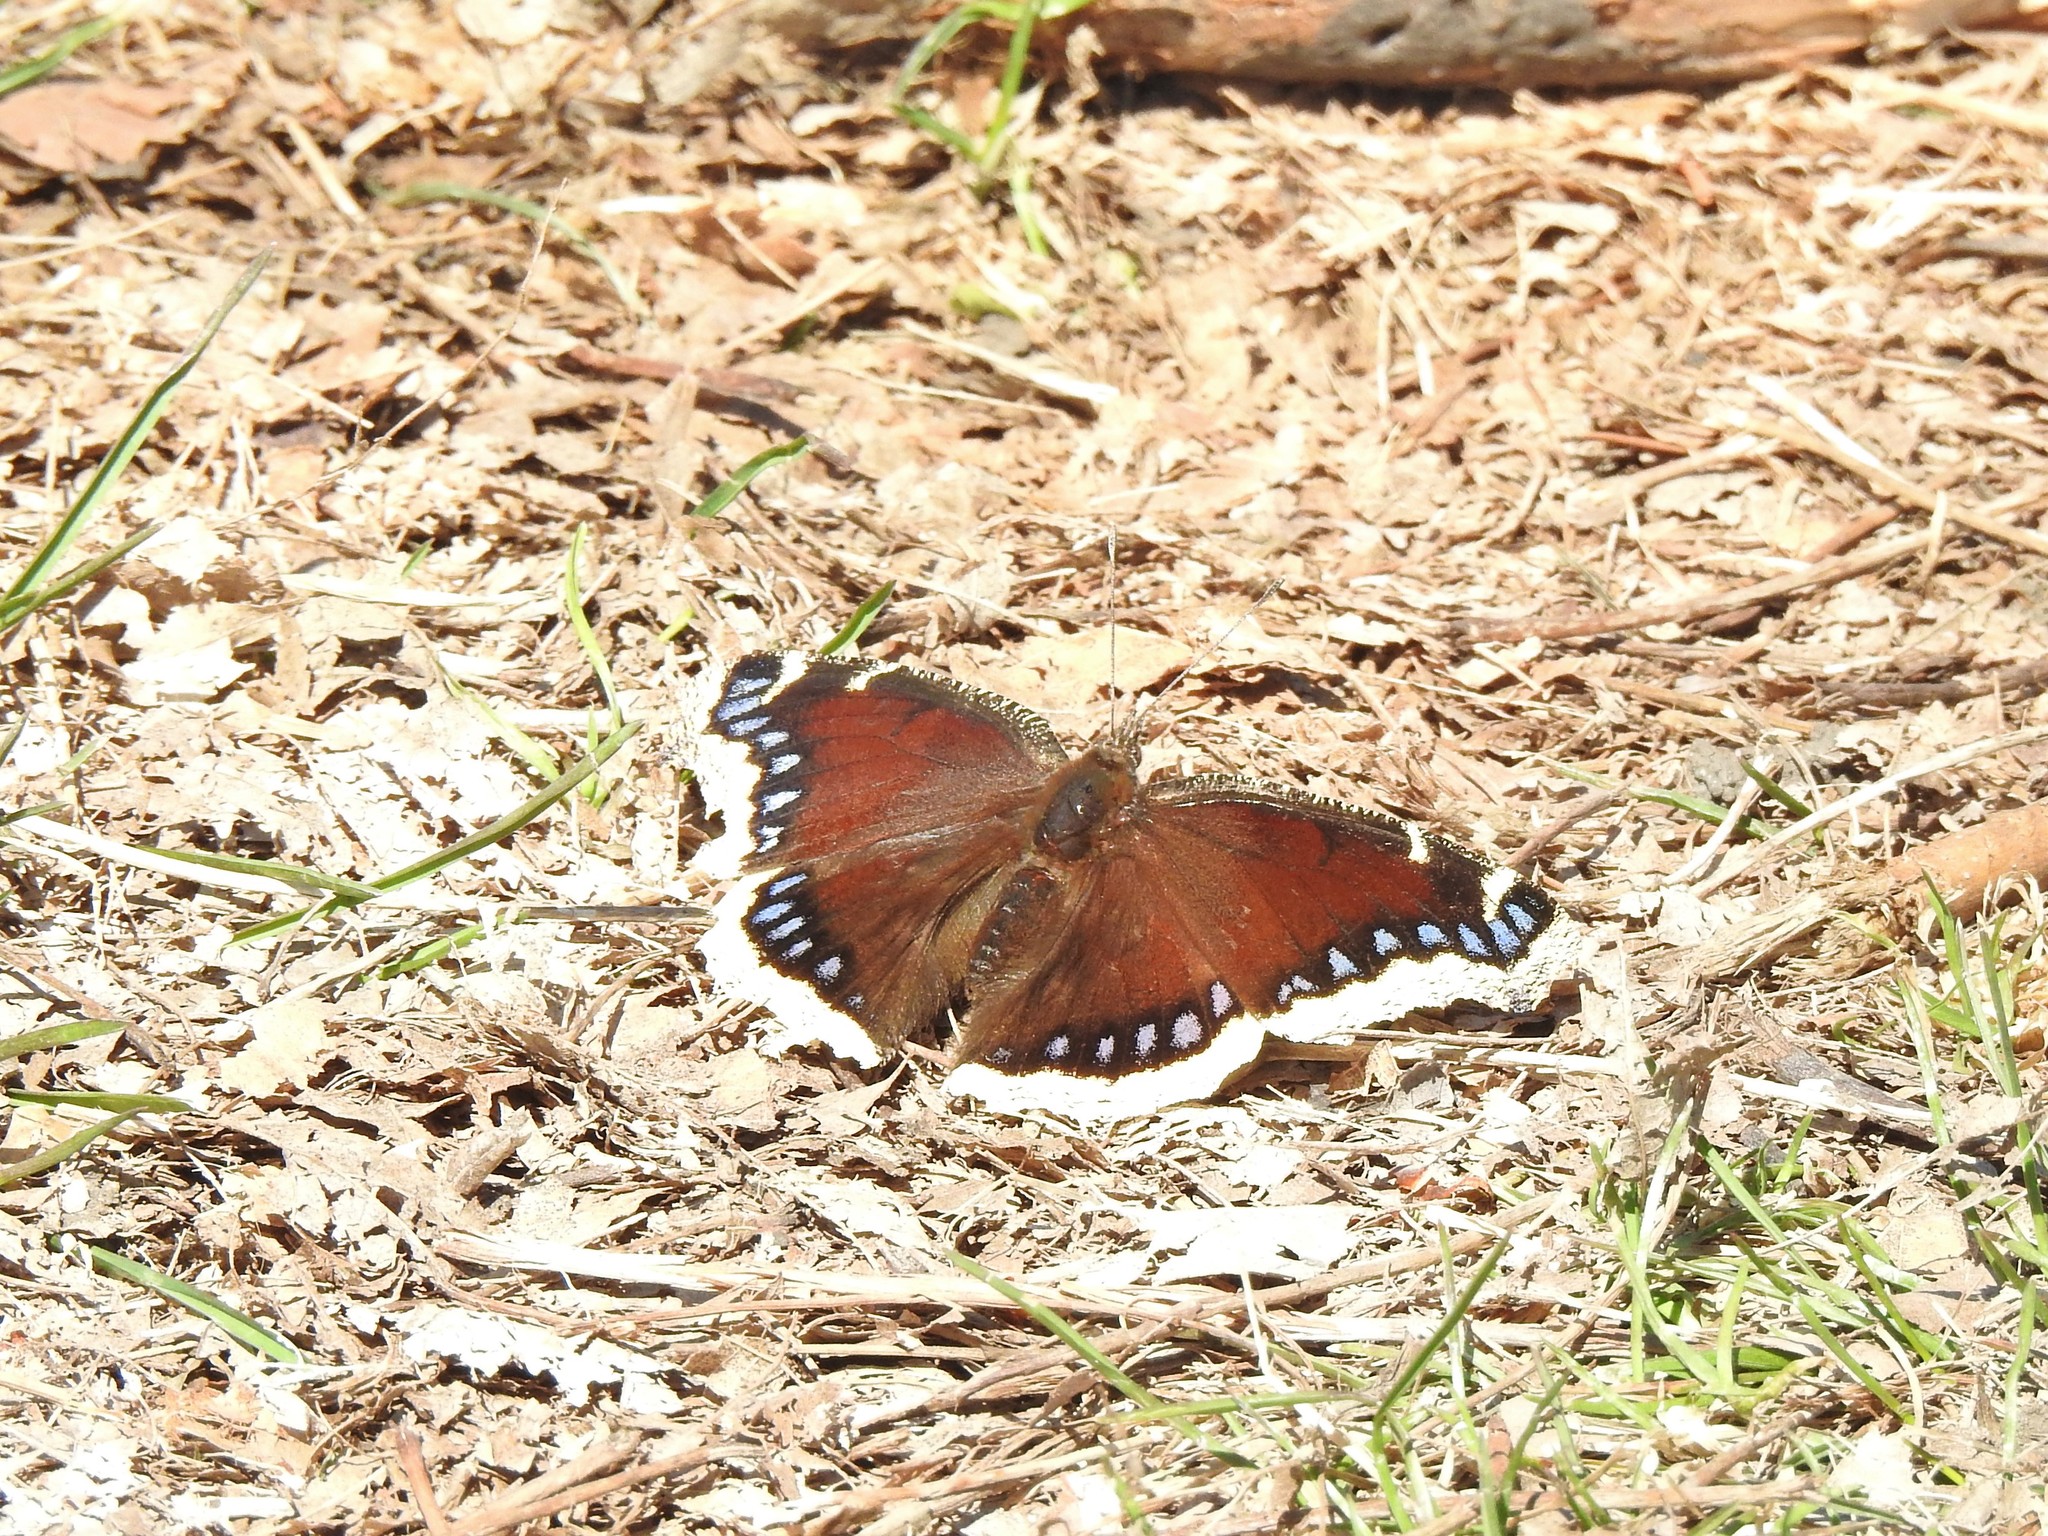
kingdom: Animalia
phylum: Arthropoda
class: Insecta
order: Lepidoptera
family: Nymphalidae
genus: Nymphalis
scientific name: Nymphalis antiopa
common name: Camberwell beauty
